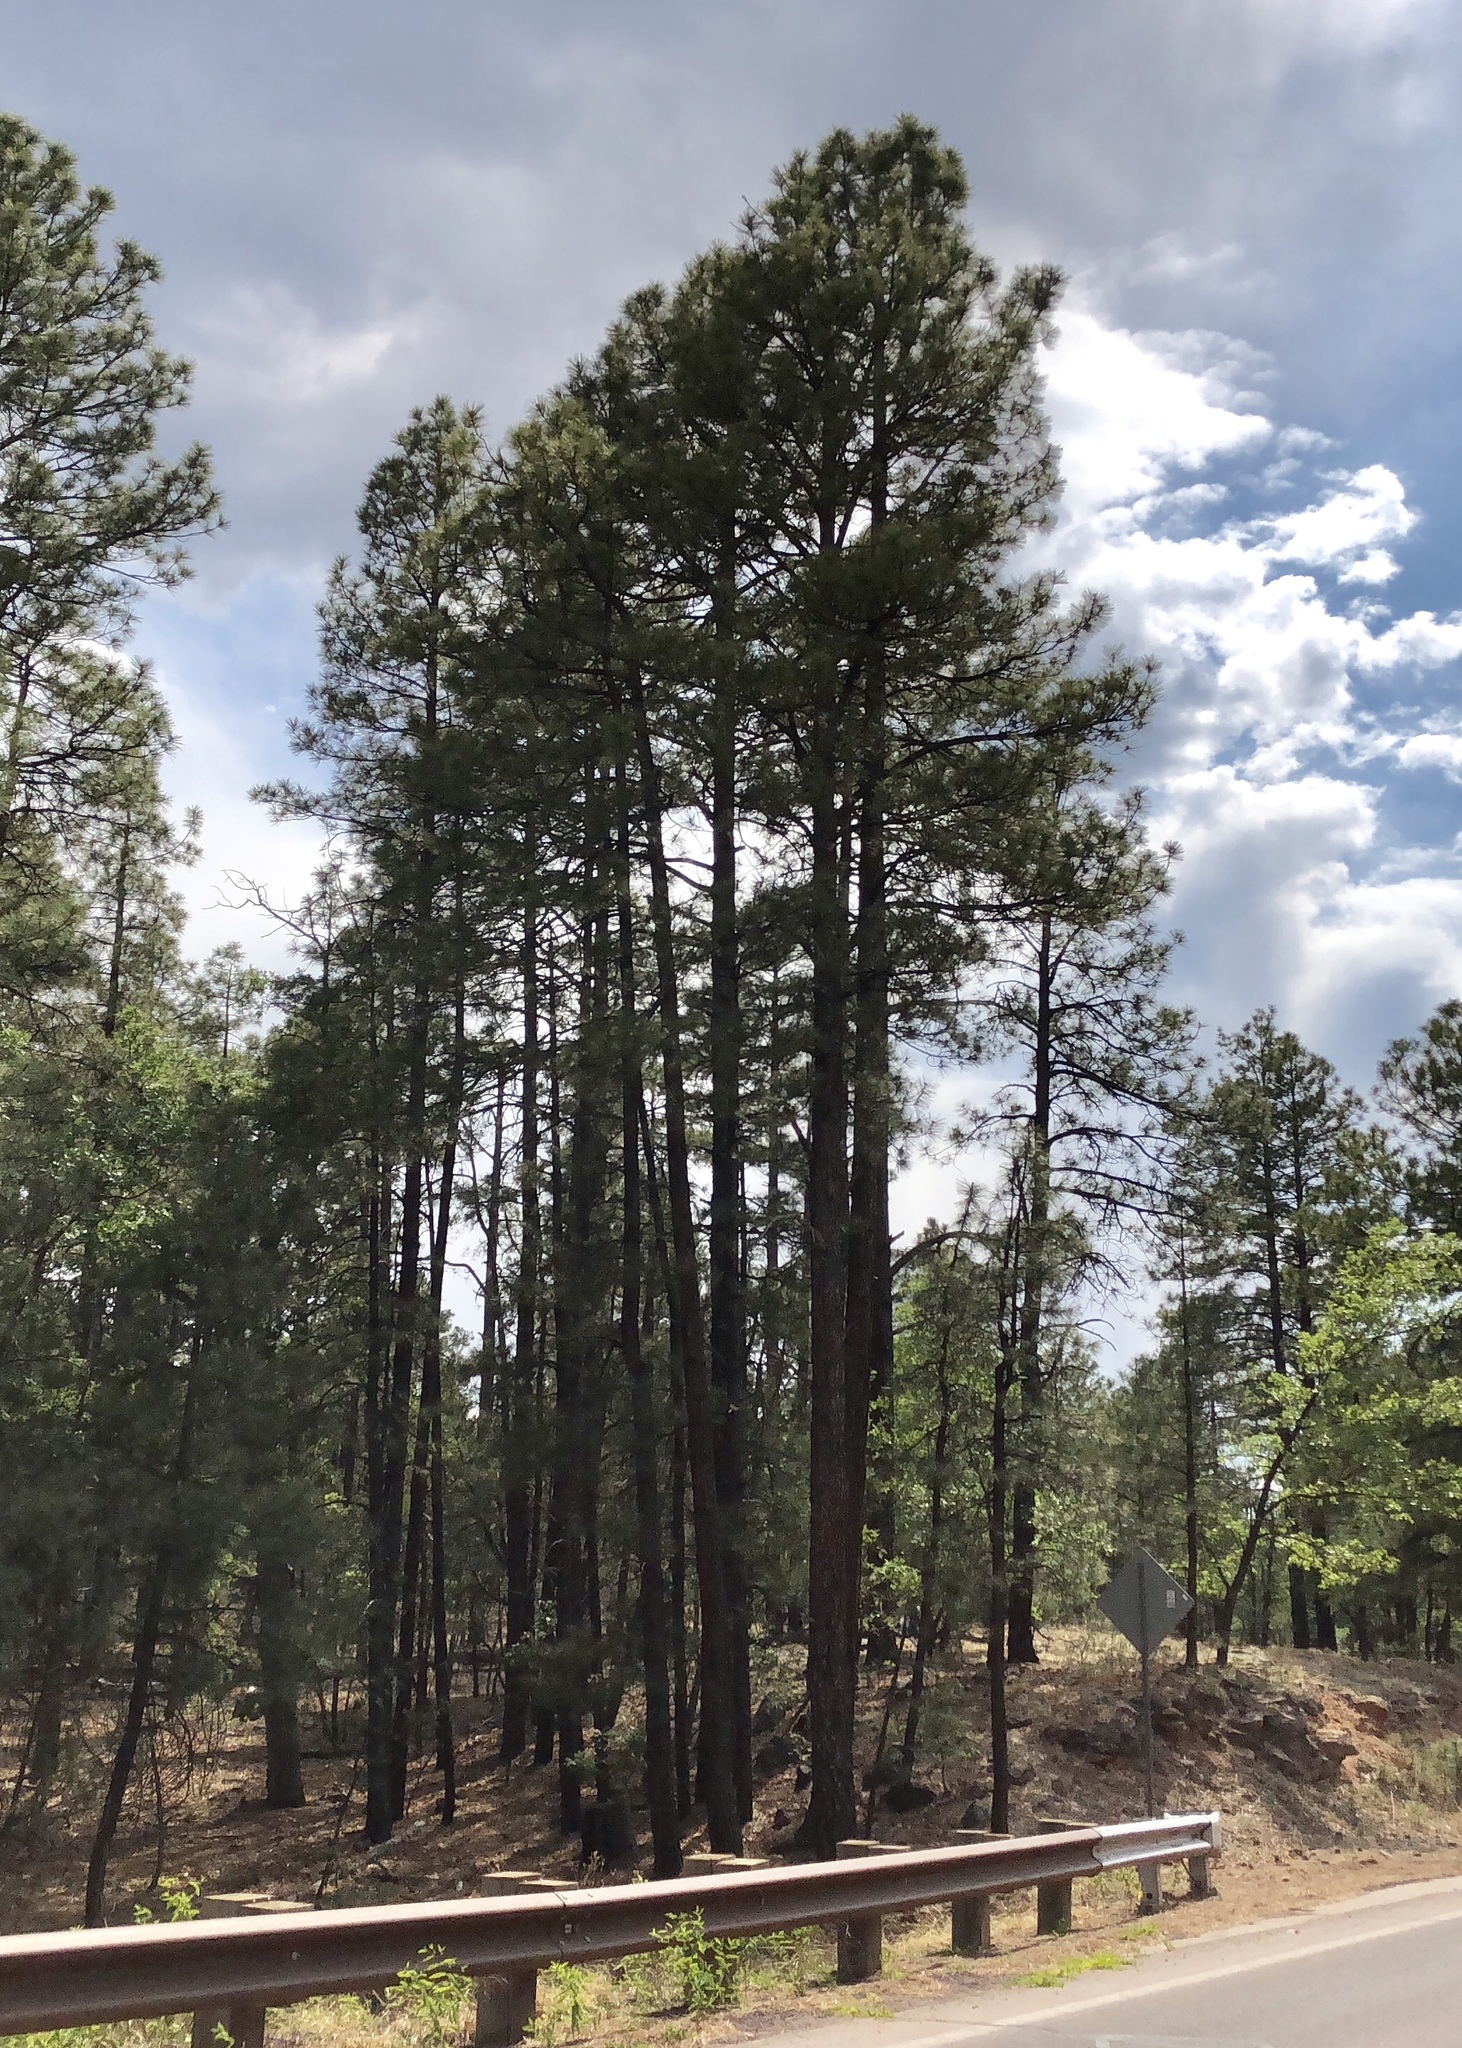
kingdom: Plantae
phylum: Tracheophyta
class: Pinopsida
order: Pinales
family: Pinaceae
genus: Pinus
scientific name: Pinus ponderosa
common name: Western yellow-pine
